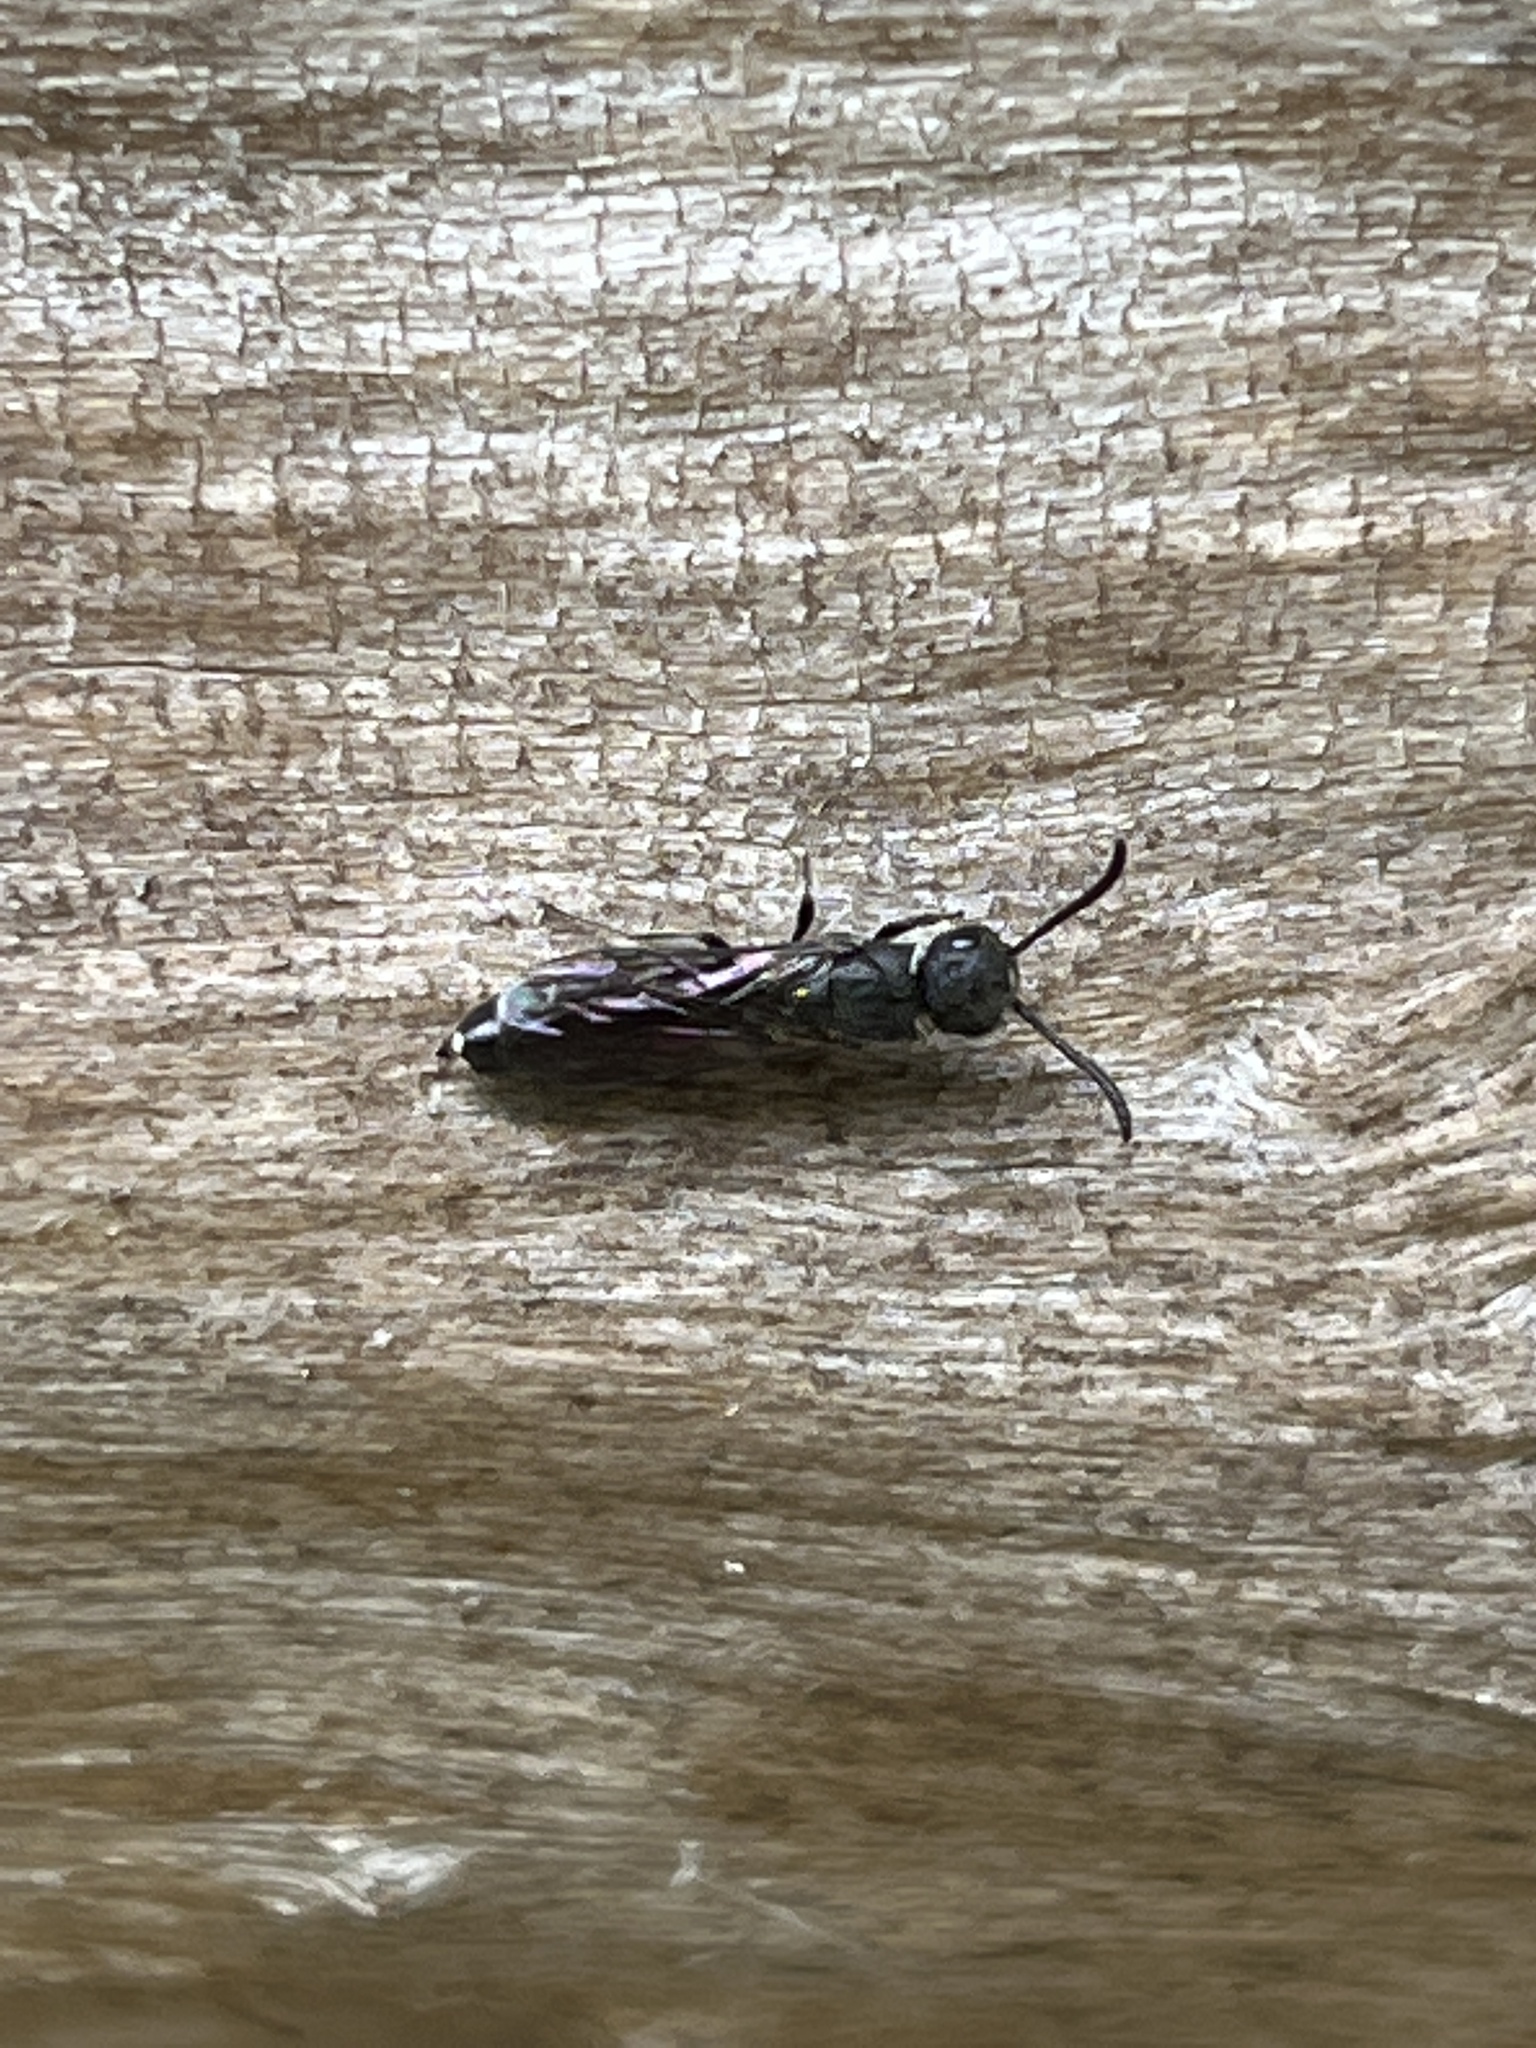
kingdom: Animalia
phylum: Arthropoda
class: Insecta
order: Hymenoptera
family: Sapygidae
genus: Sapygina
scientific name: Sapygina decemguttata
